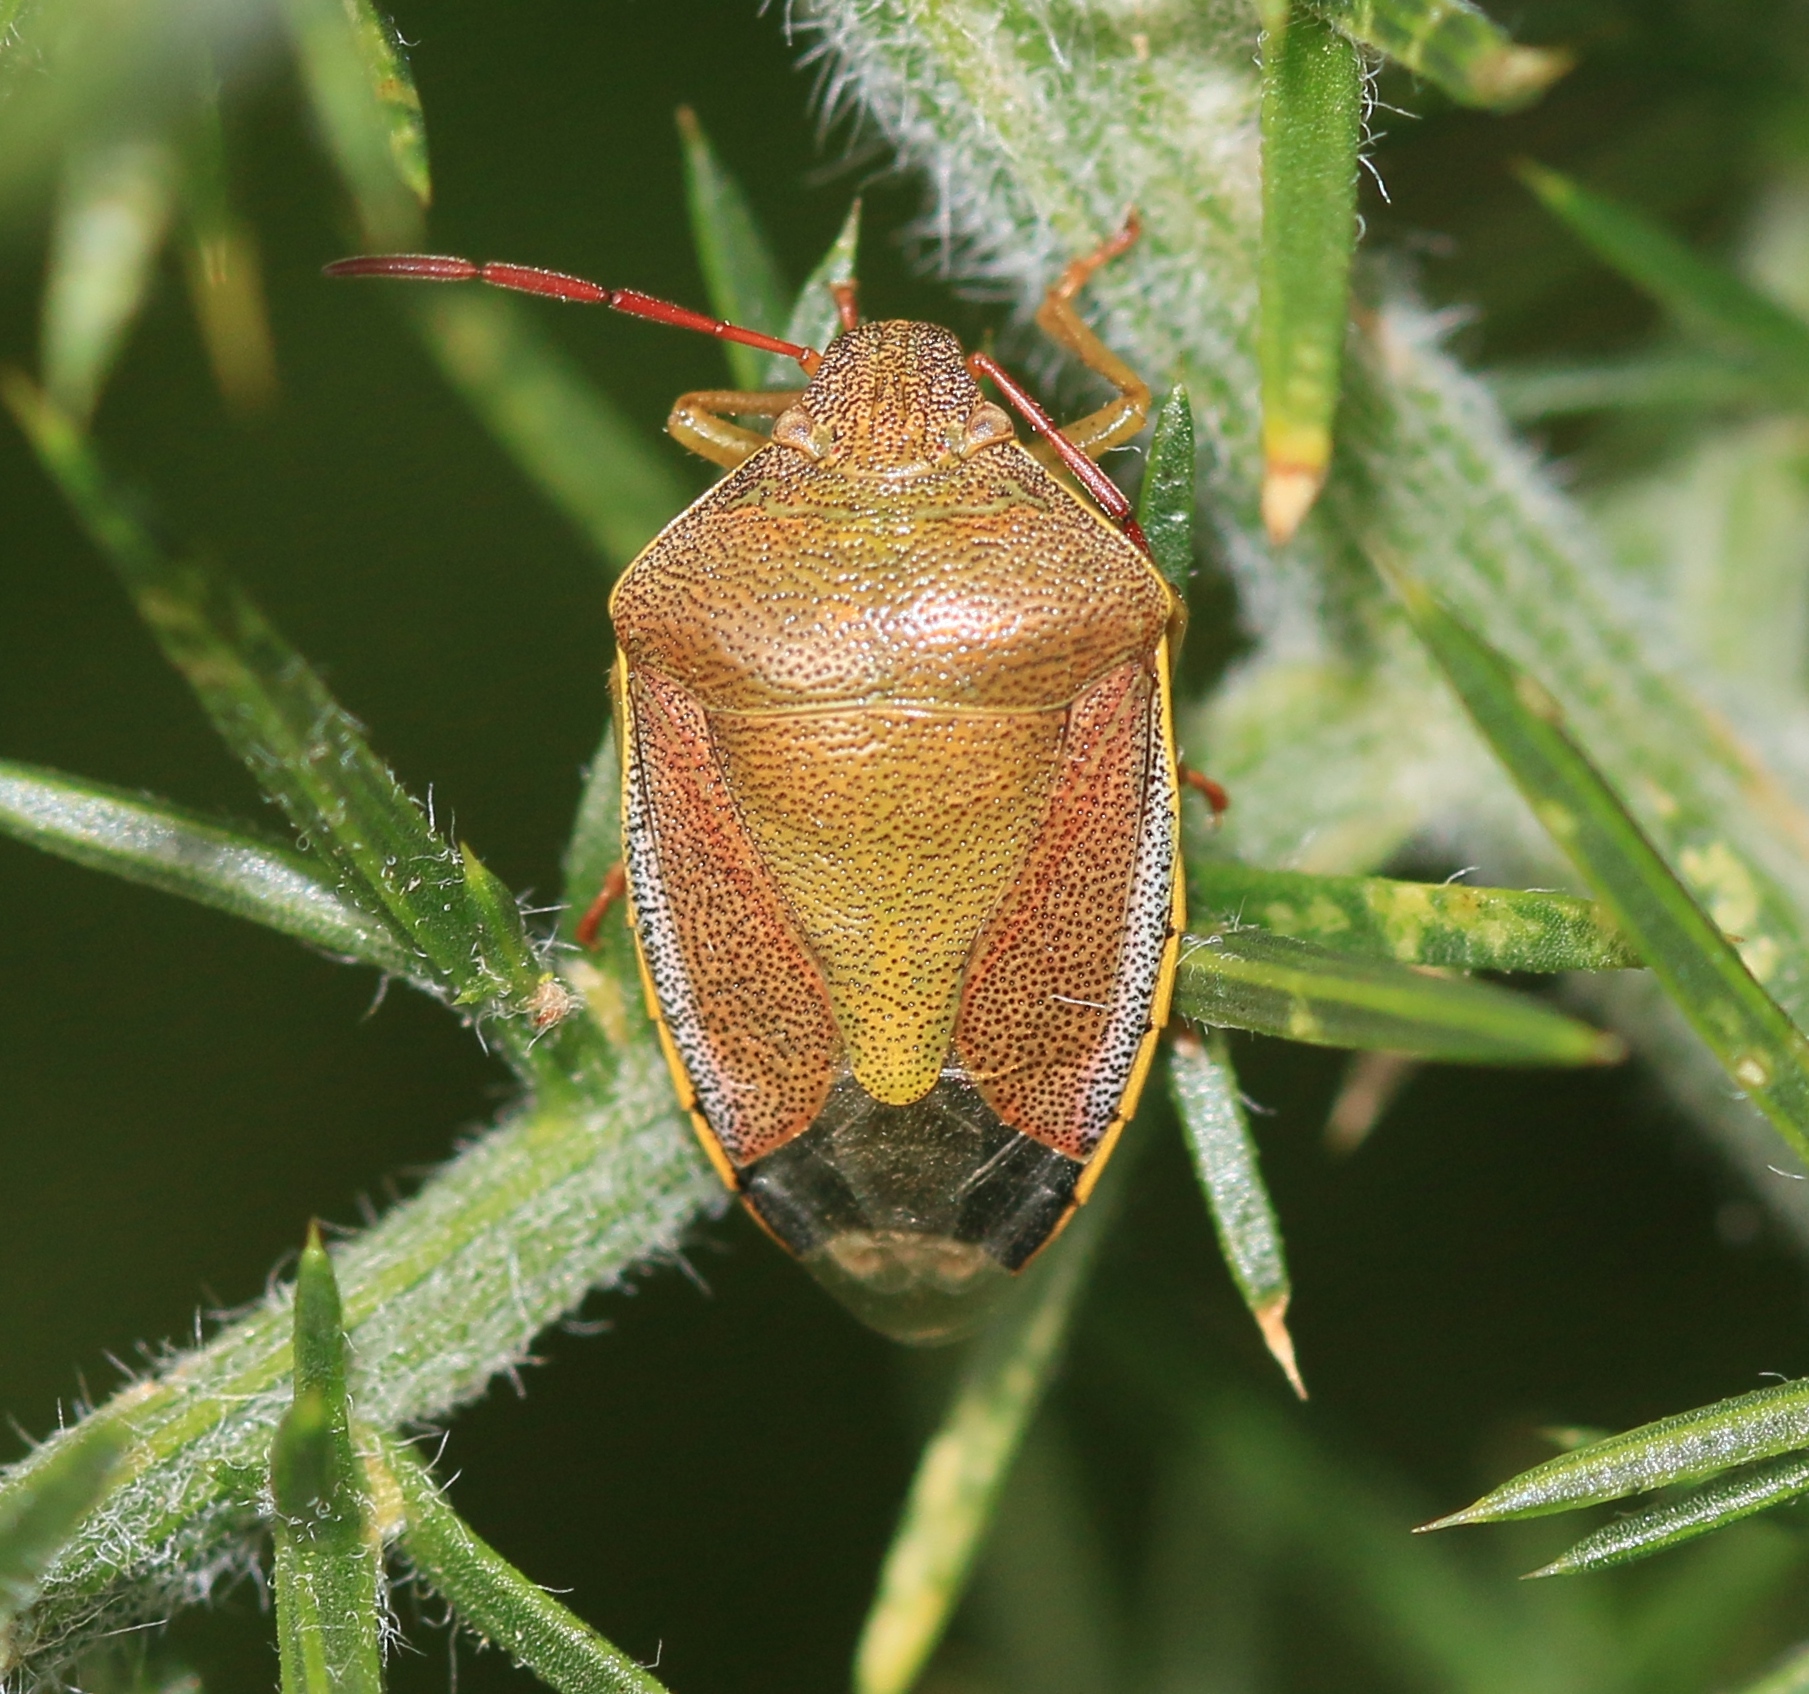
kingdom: Animalia
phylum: Arthropoda
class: Insecta
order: Hemiptera
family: Pentatomidae
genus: Piezodorus
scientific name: Piezodorus lituratus
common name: Stink bug
